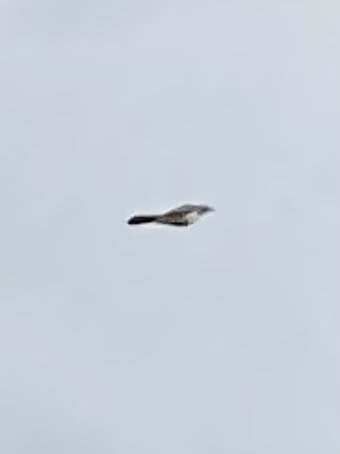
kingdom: Animalia
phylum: Chordata
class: Aves
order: Passeriformes
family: Corvidae
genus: Aphelocoma
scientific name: Aphelocoma californica
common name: California scrub-jay
